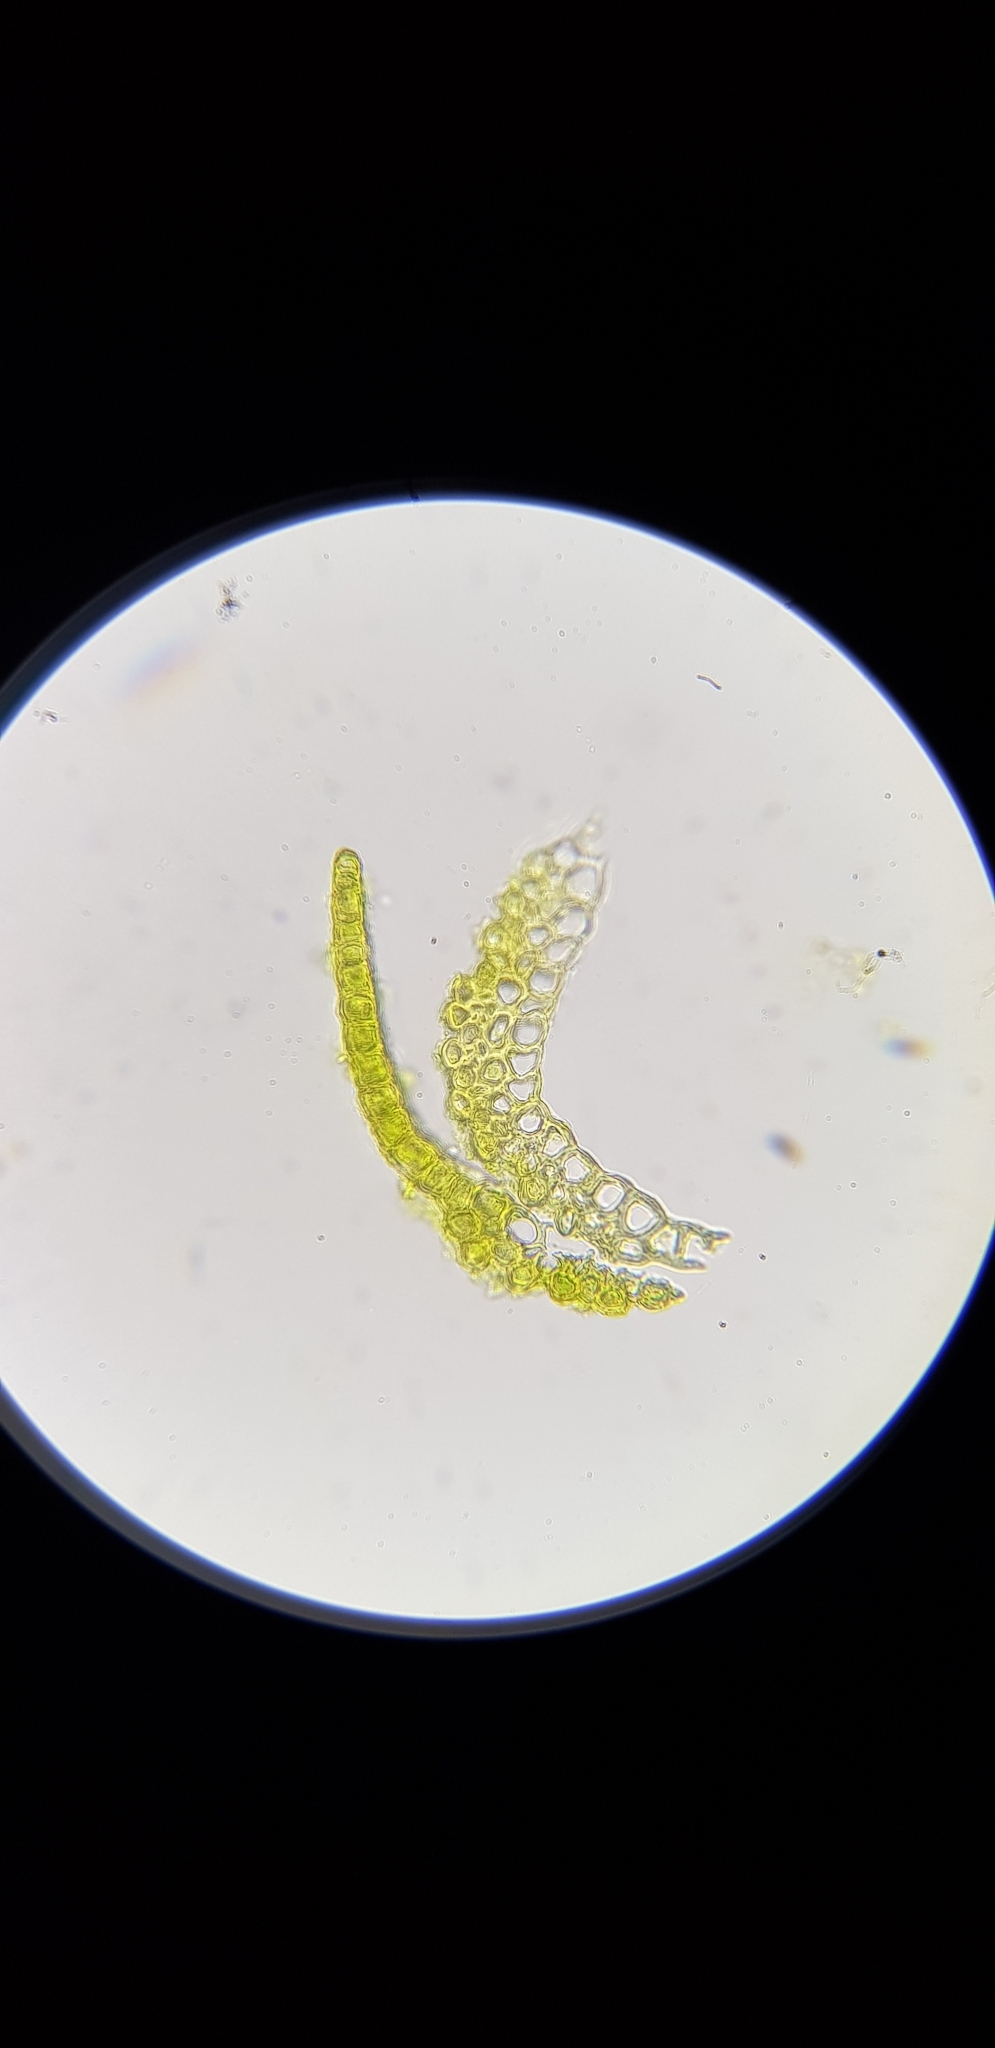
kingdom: Plantae
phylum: Bryophyta
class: Bryopsida
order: Dicranales
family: Leucobryaceae
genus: Campylopus
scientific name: Campylopus introflexus
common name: Heath star moss
